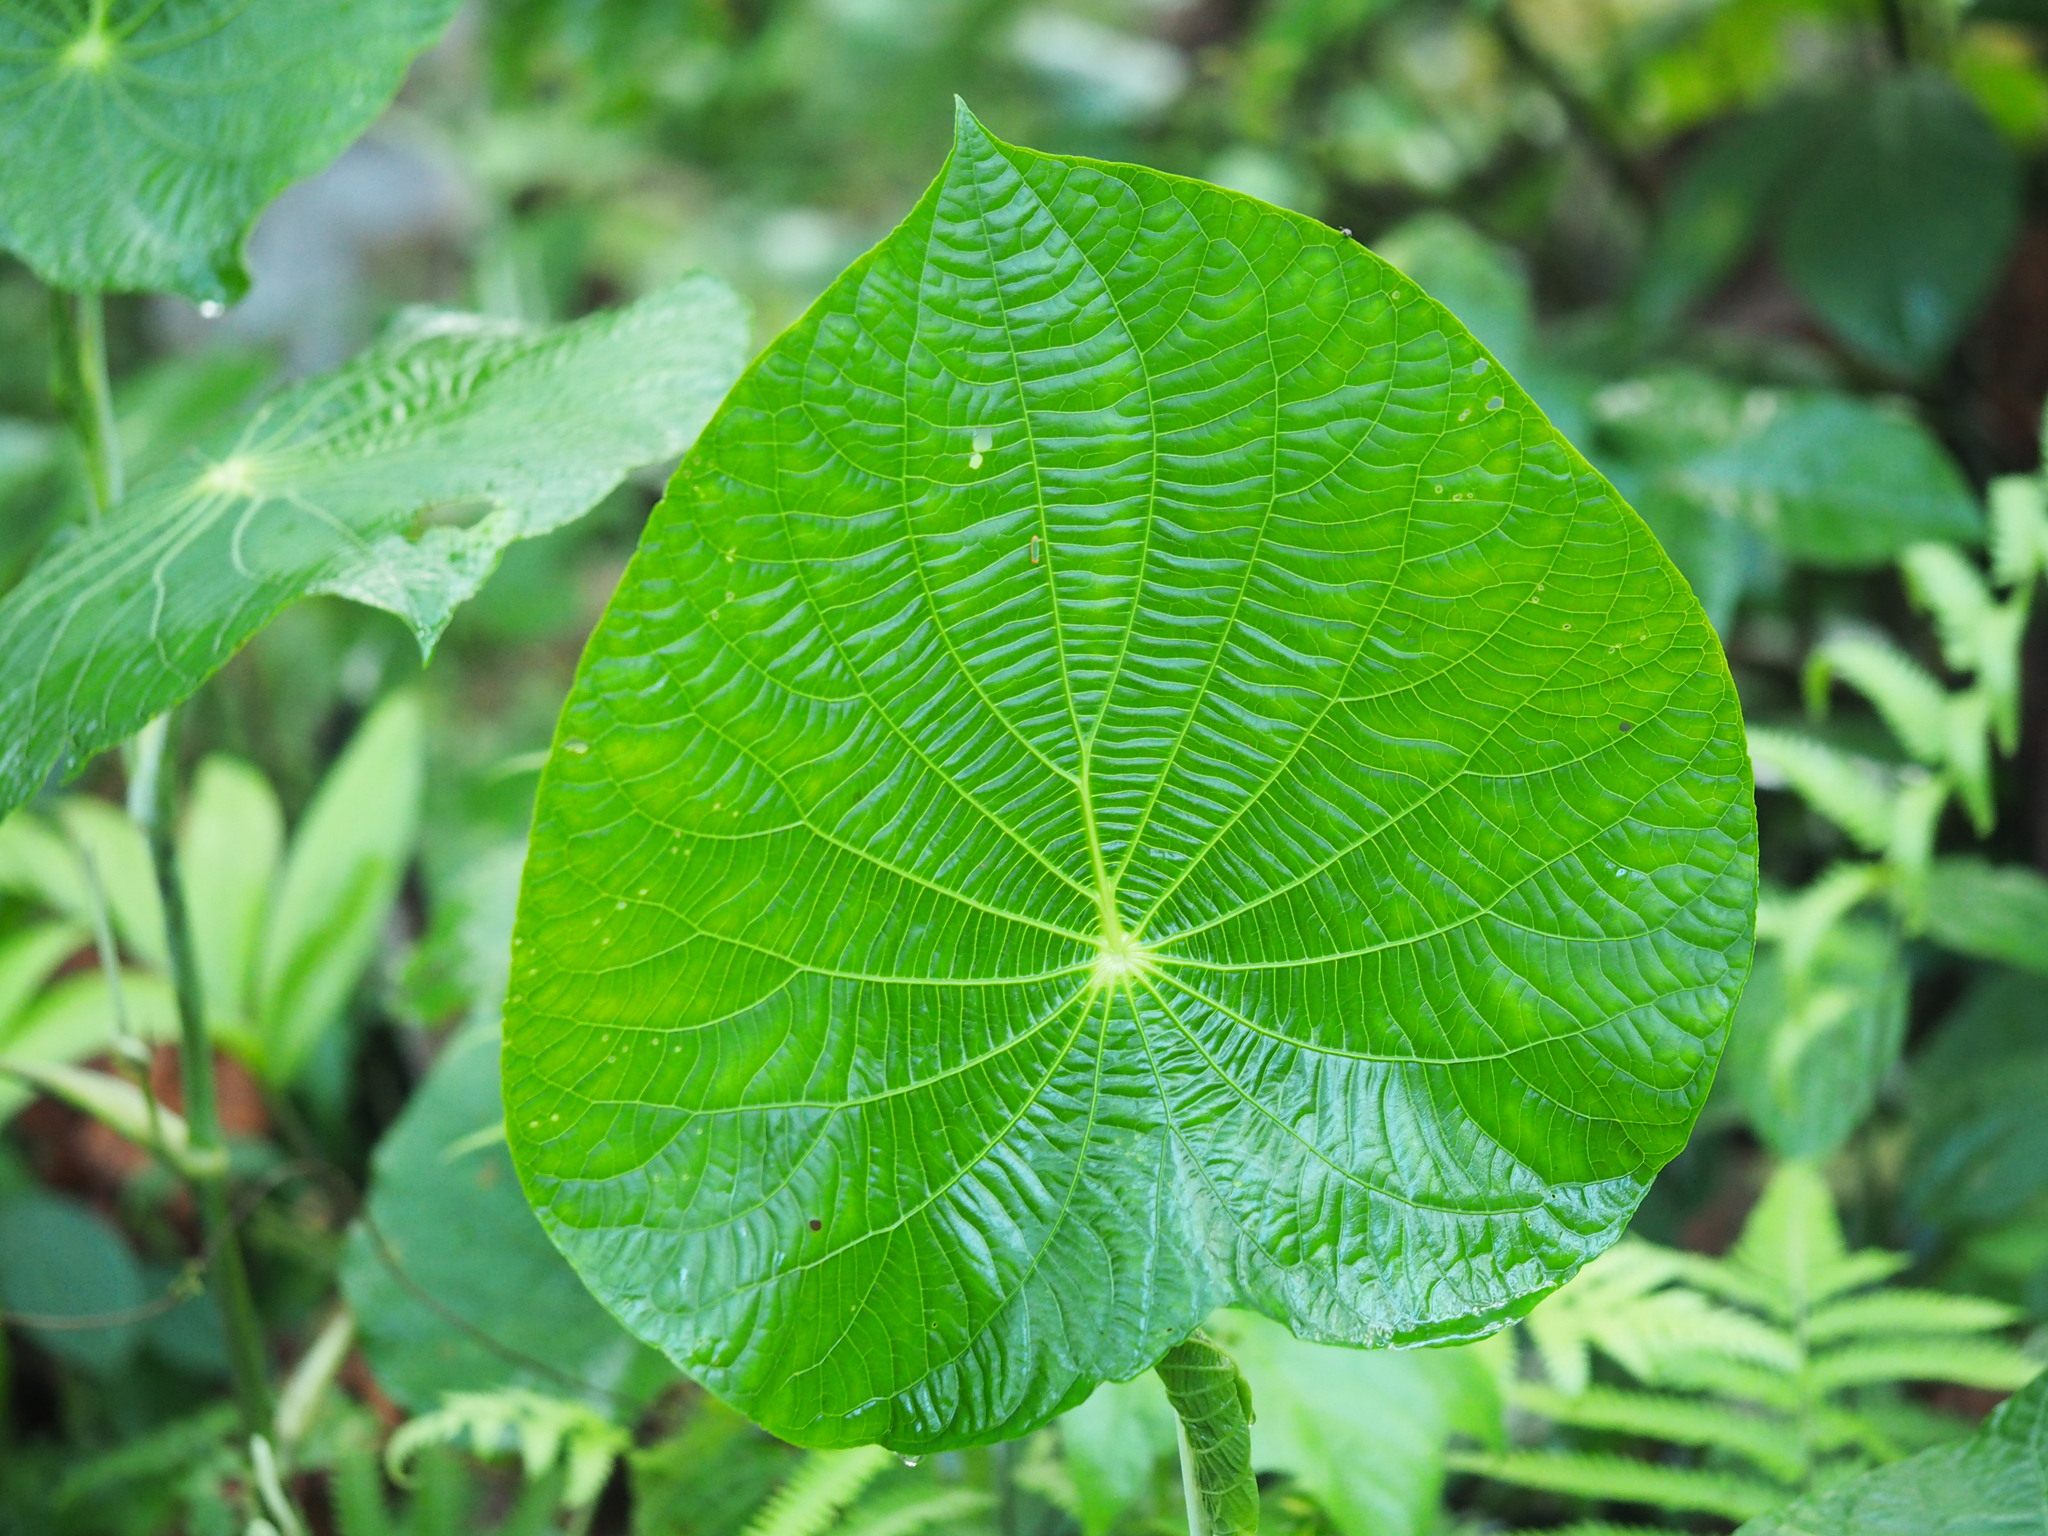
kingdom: Plantae
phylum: Tracheophyta
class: Magnoliopsida
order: Piperales
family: Piperaceae
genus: Piper
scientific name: Piper peltatum
